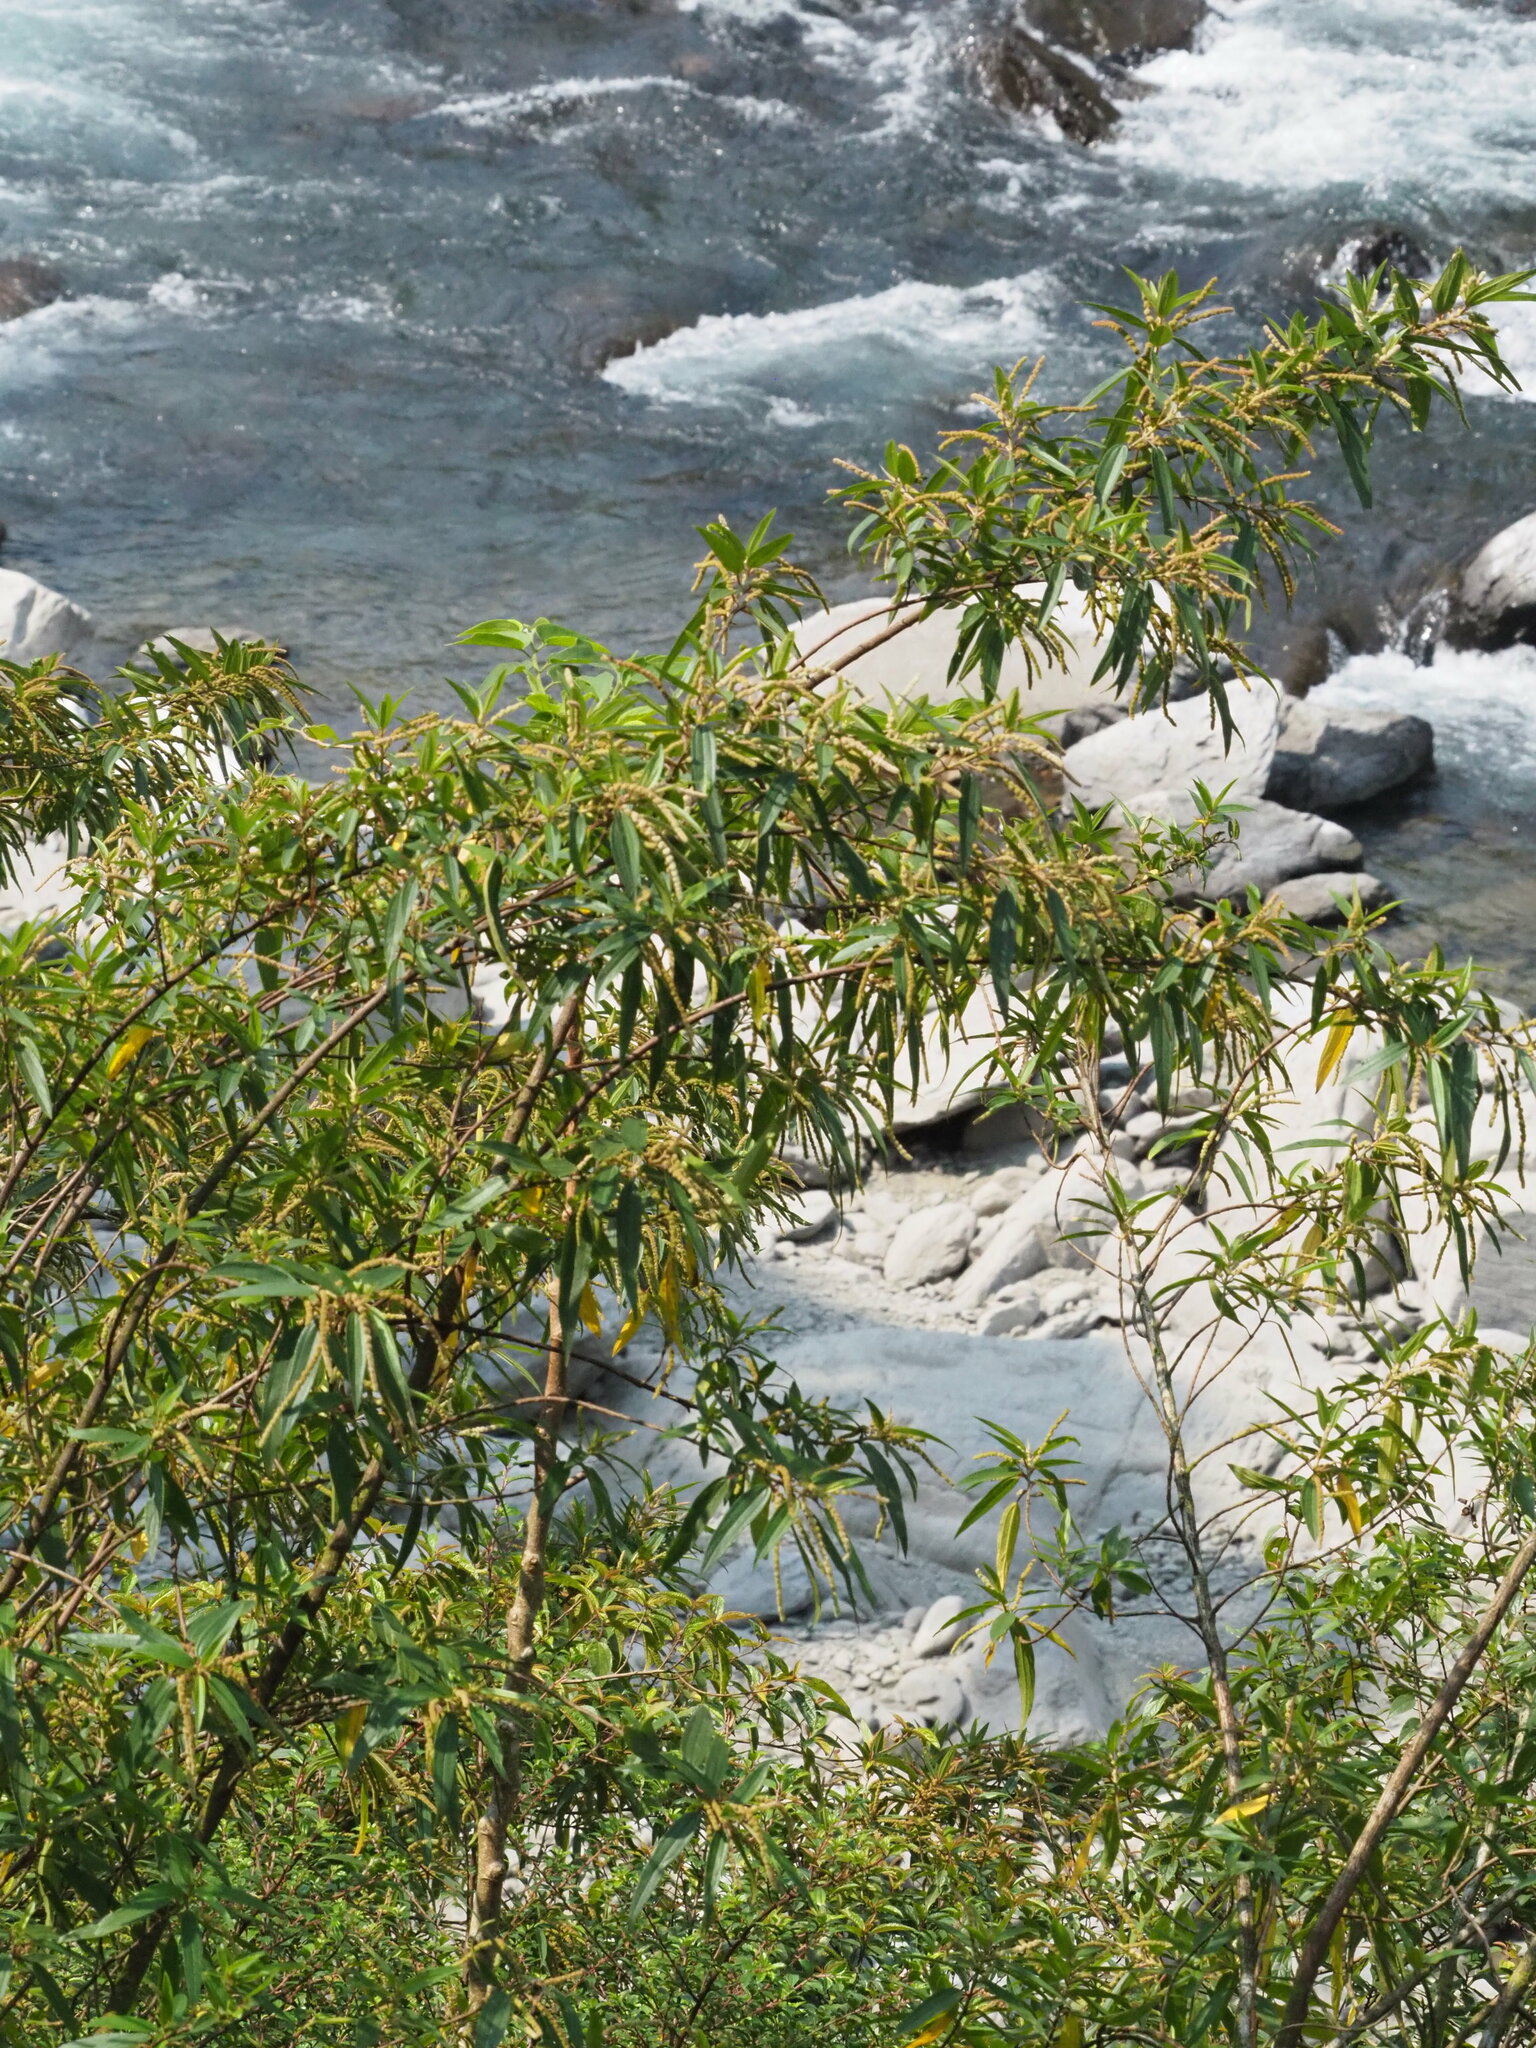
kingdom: Plantae
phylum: Tracheophyta
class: Magnoliopsida
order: Rosales
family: Urticaceae
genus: Boehmeria
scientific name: Boehmeria densiflora
